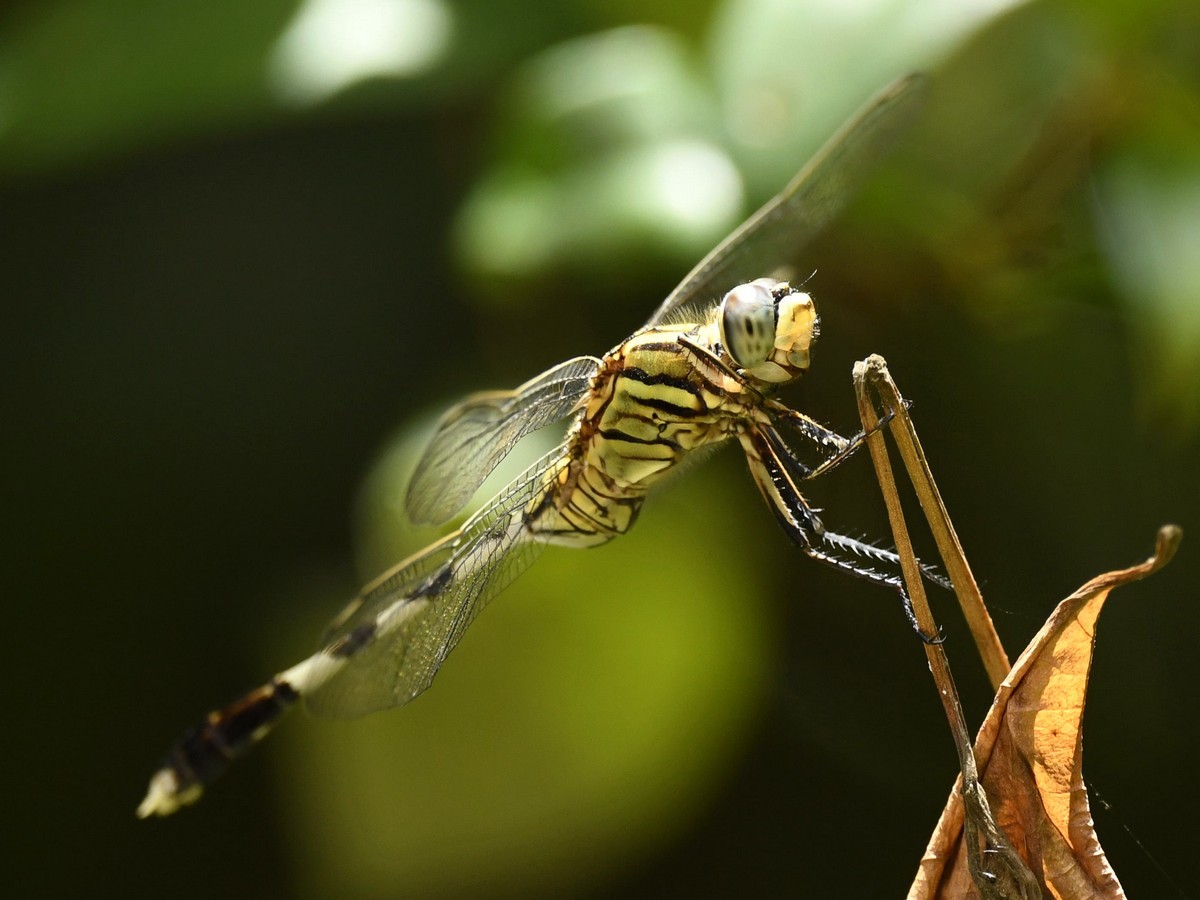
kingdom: Animalia
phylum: Arthropoda
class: Insecta
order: Odonata
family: Libellulidae
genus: Orthetrum
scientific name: Orthetrum sabina
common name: Slender skimmer
